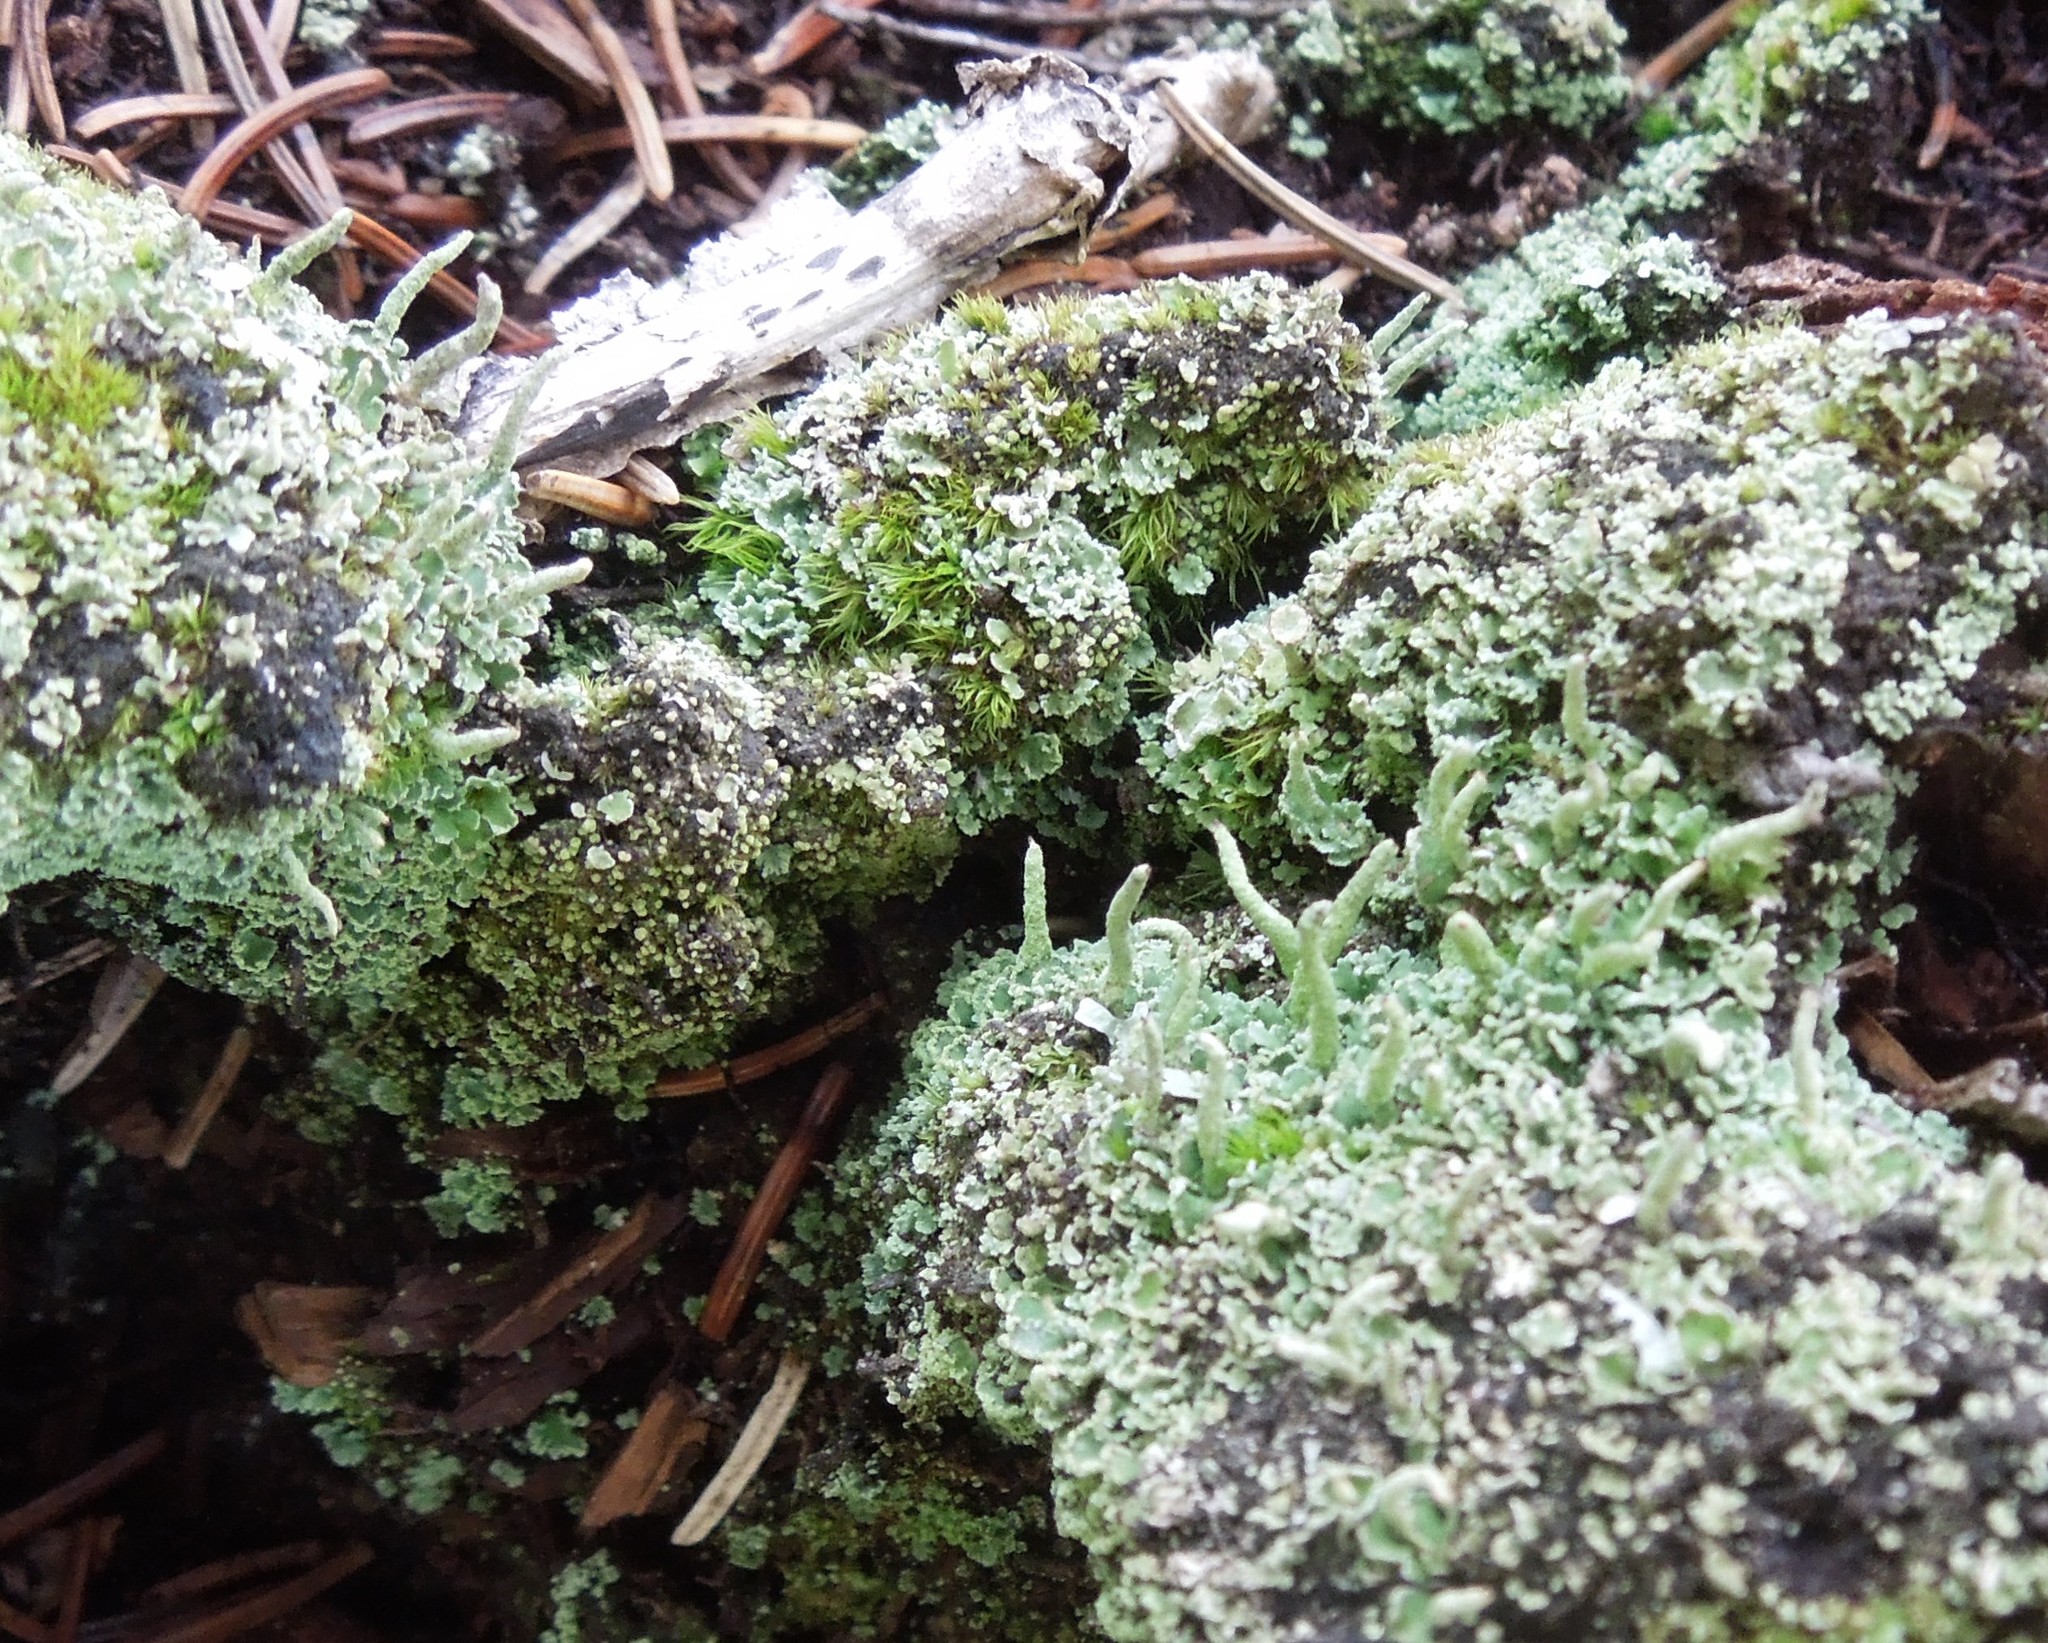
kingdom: Fungi
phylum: Ascomycota
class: Lecanoromycetes
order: Lecanorales
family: Cladoniaceae
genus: Cladonia
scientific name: Cladonia coniocraea
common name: Common powderhorn
